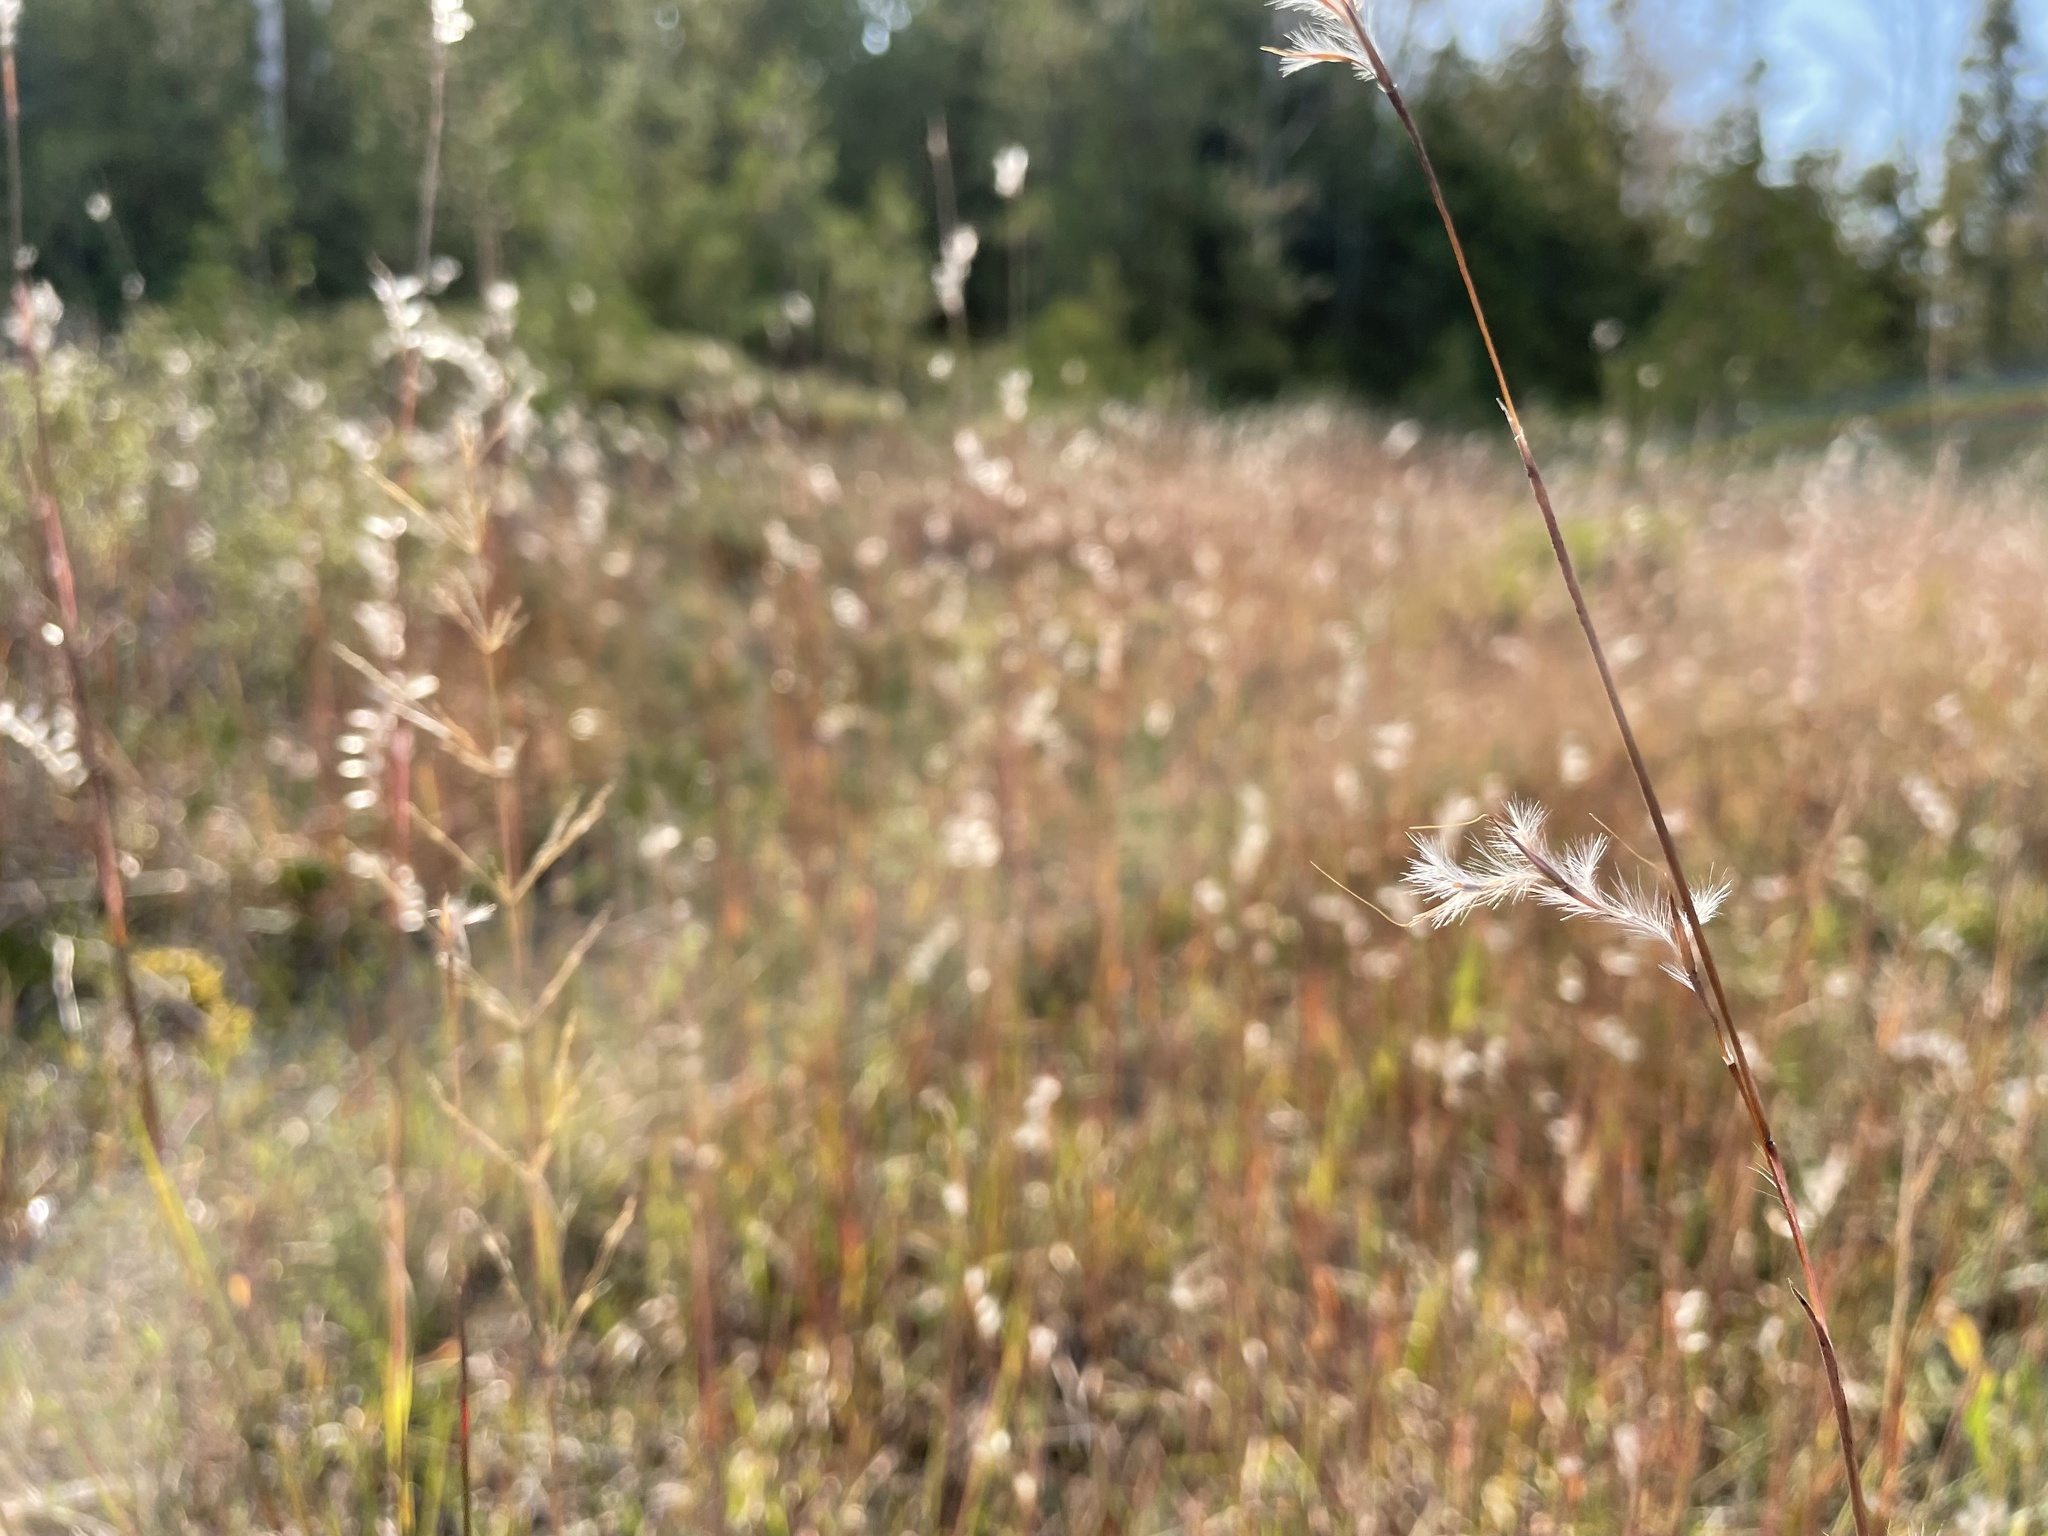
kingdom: Plantae
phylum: Tracheophyta
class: Liliopsida
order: Poales
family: Poaceae
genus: Schizachyrium
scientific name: Schizachyrium scoparium
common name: Little bluestem
